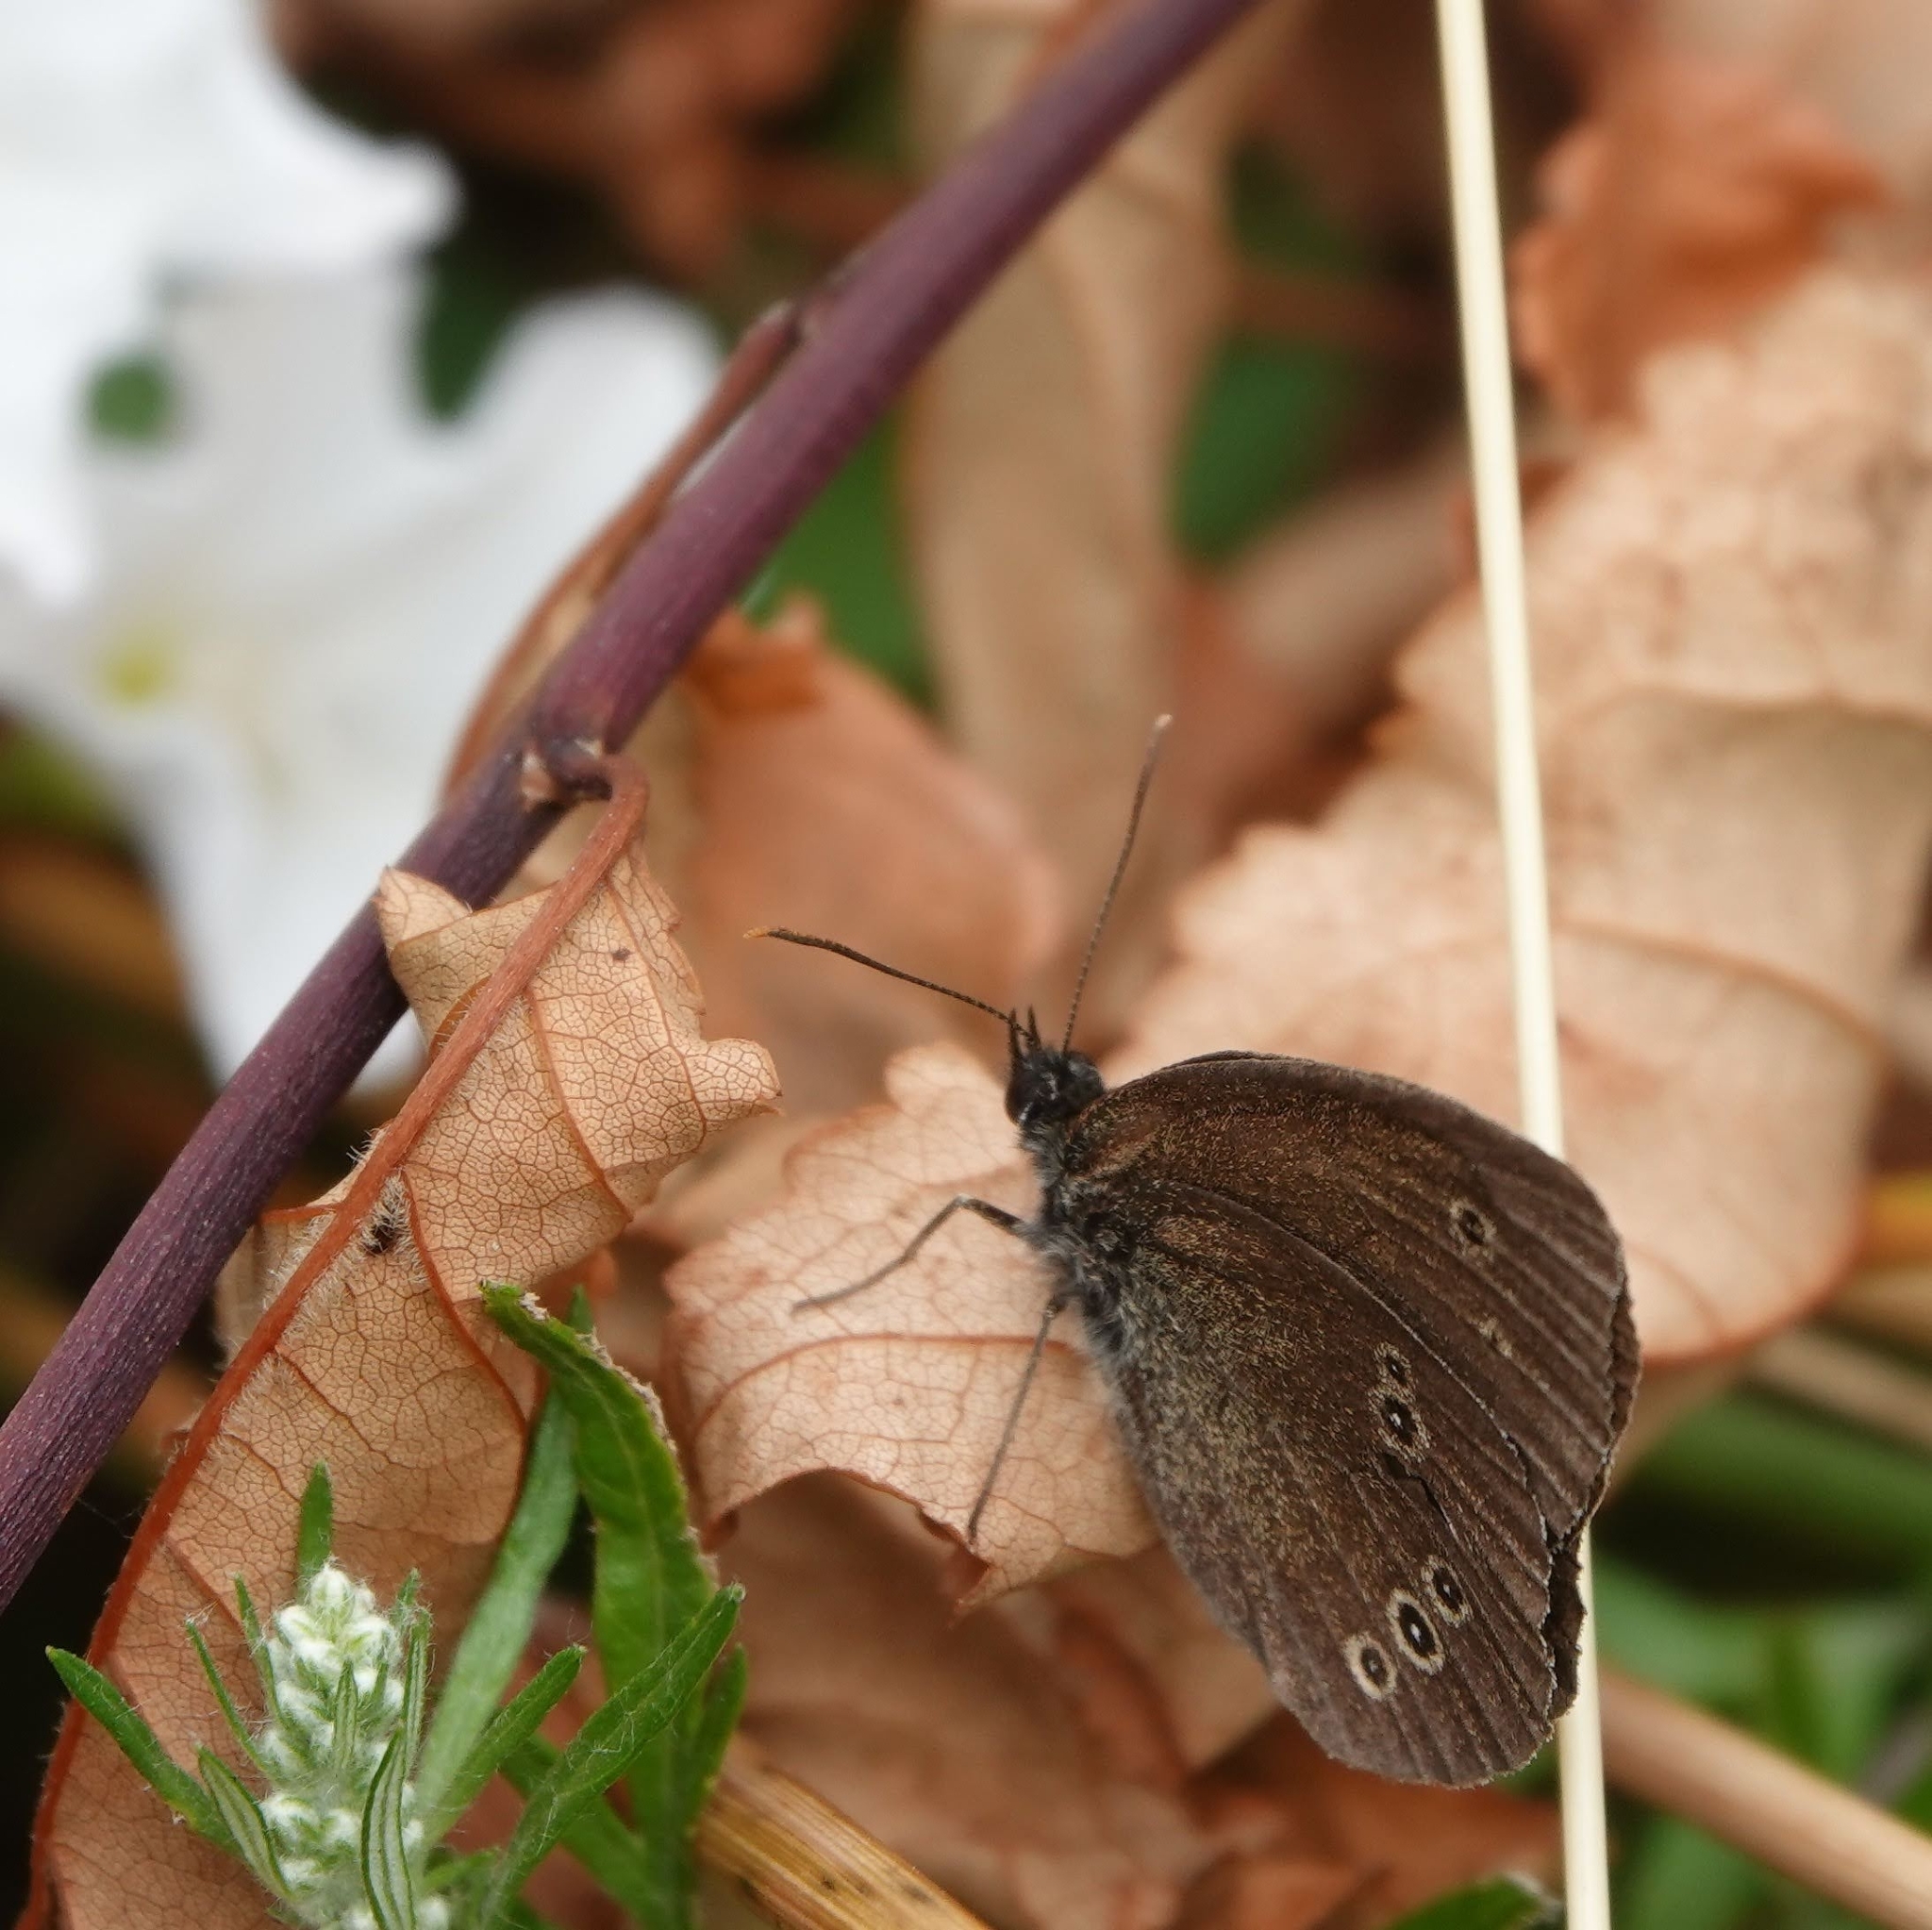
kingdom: Animalia
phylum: Arthropoda
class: Insecta
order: Lepidoptera
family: Nymphalidae
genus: Aphantopus
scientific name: Aphantopus hyperantus
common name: Ringlet
